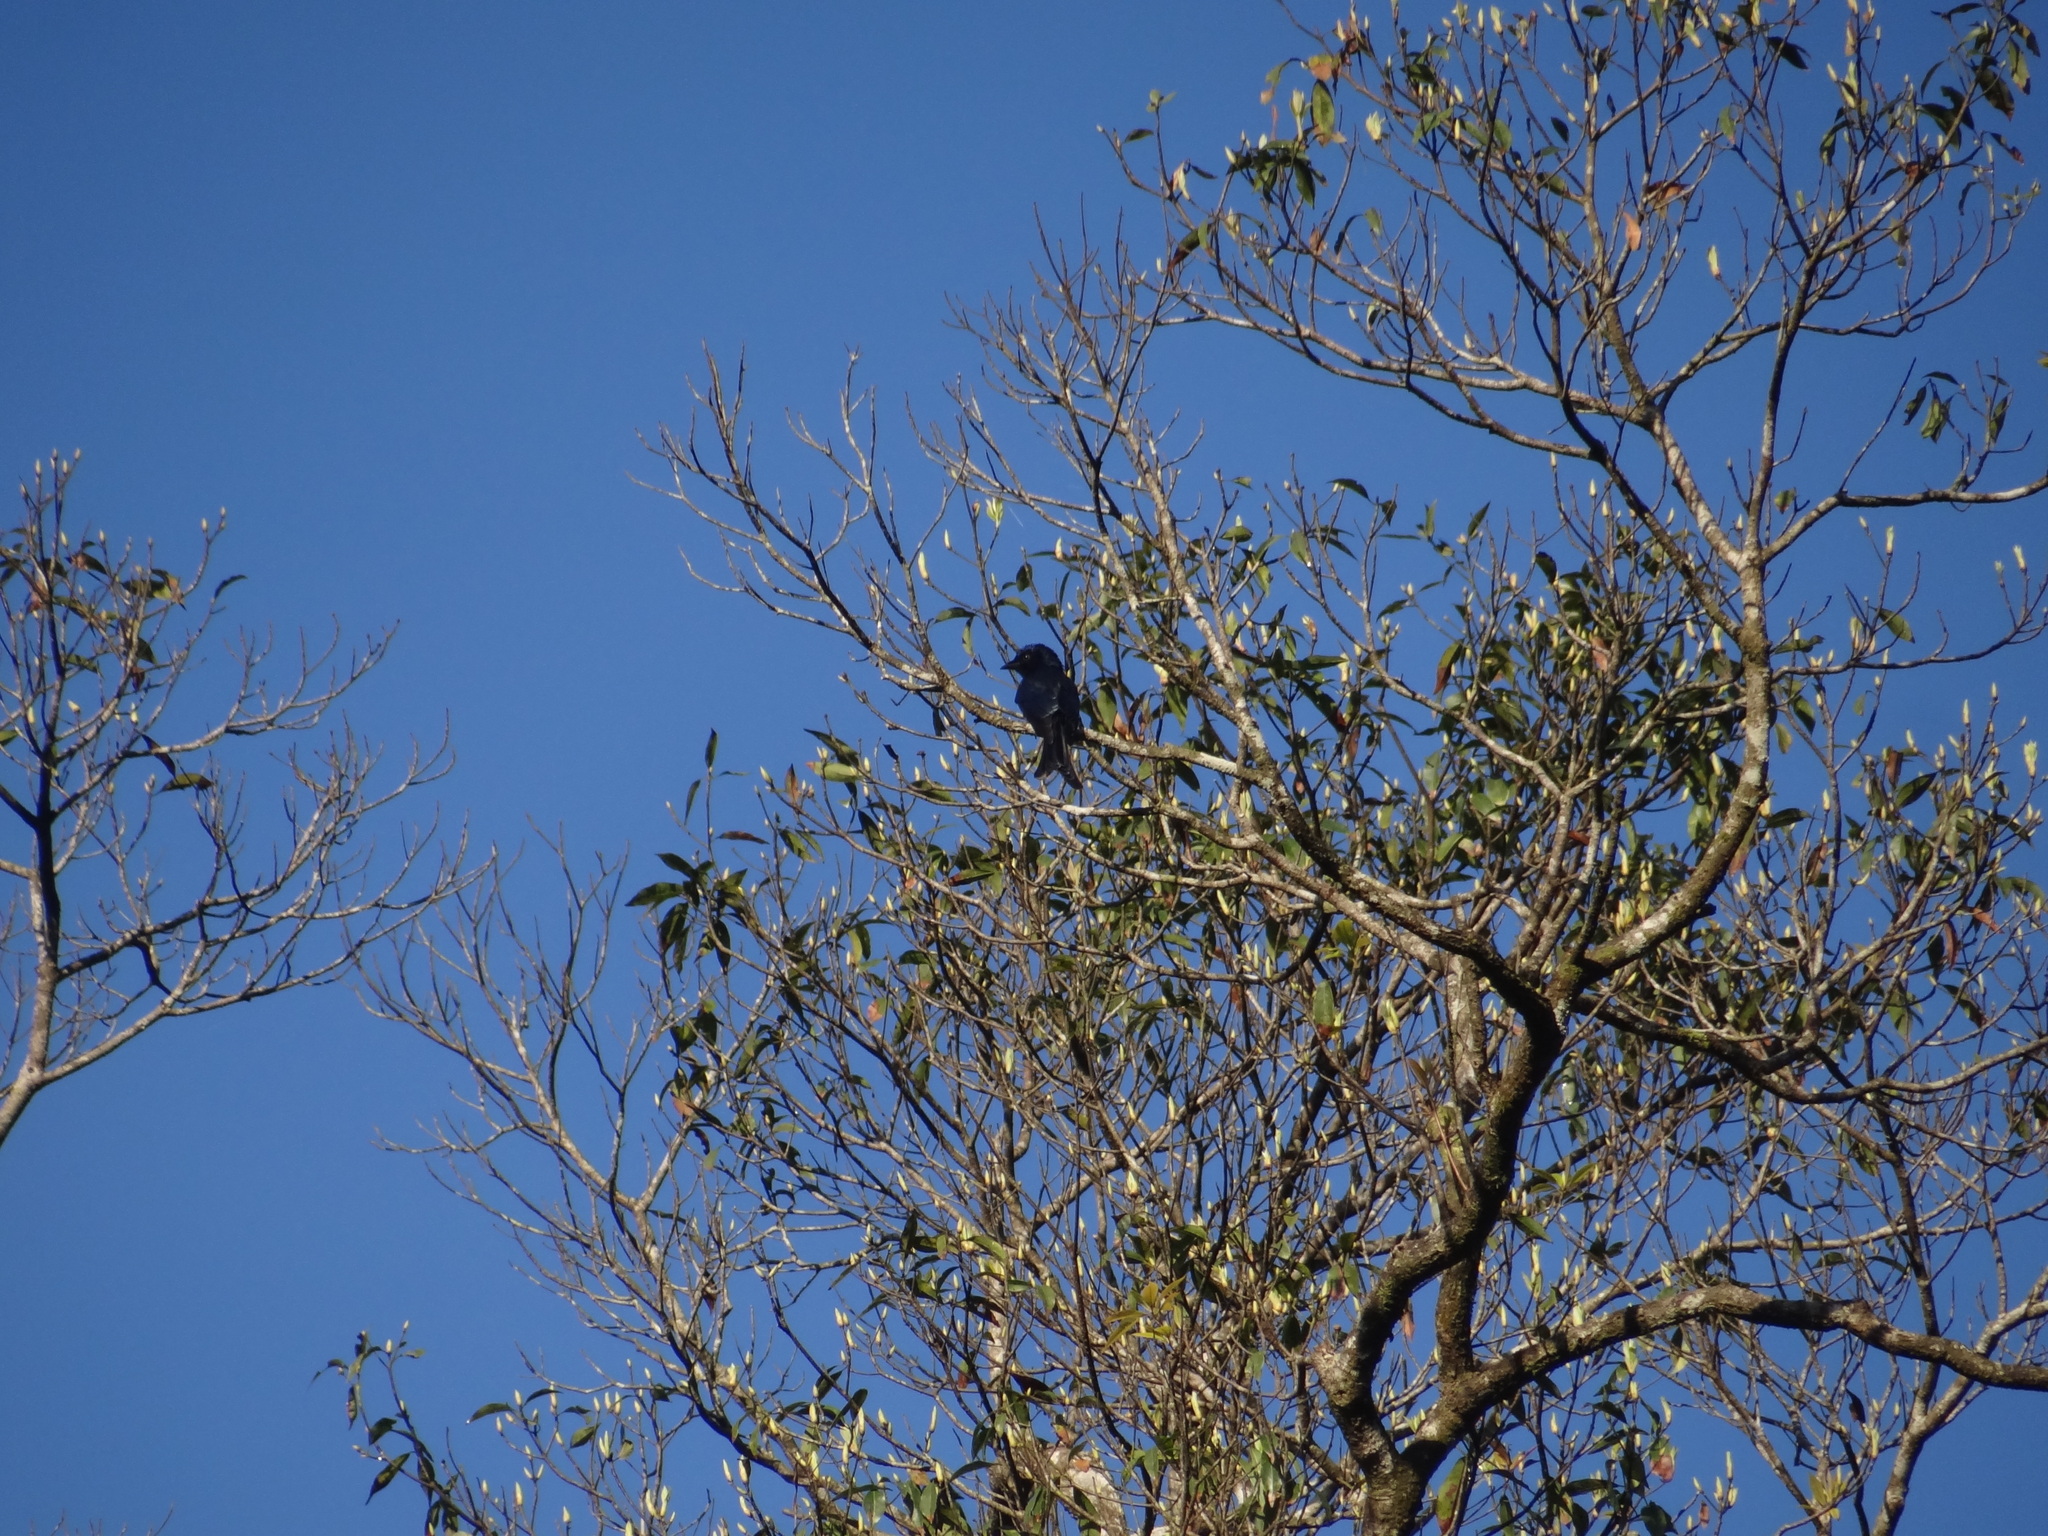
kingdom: Animalia
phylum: Chordata
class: Aves
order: Passeriformes
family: Dicruridae
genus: Dicrurus
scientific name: Dicrurus aeneus
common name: Bronzed drongo
